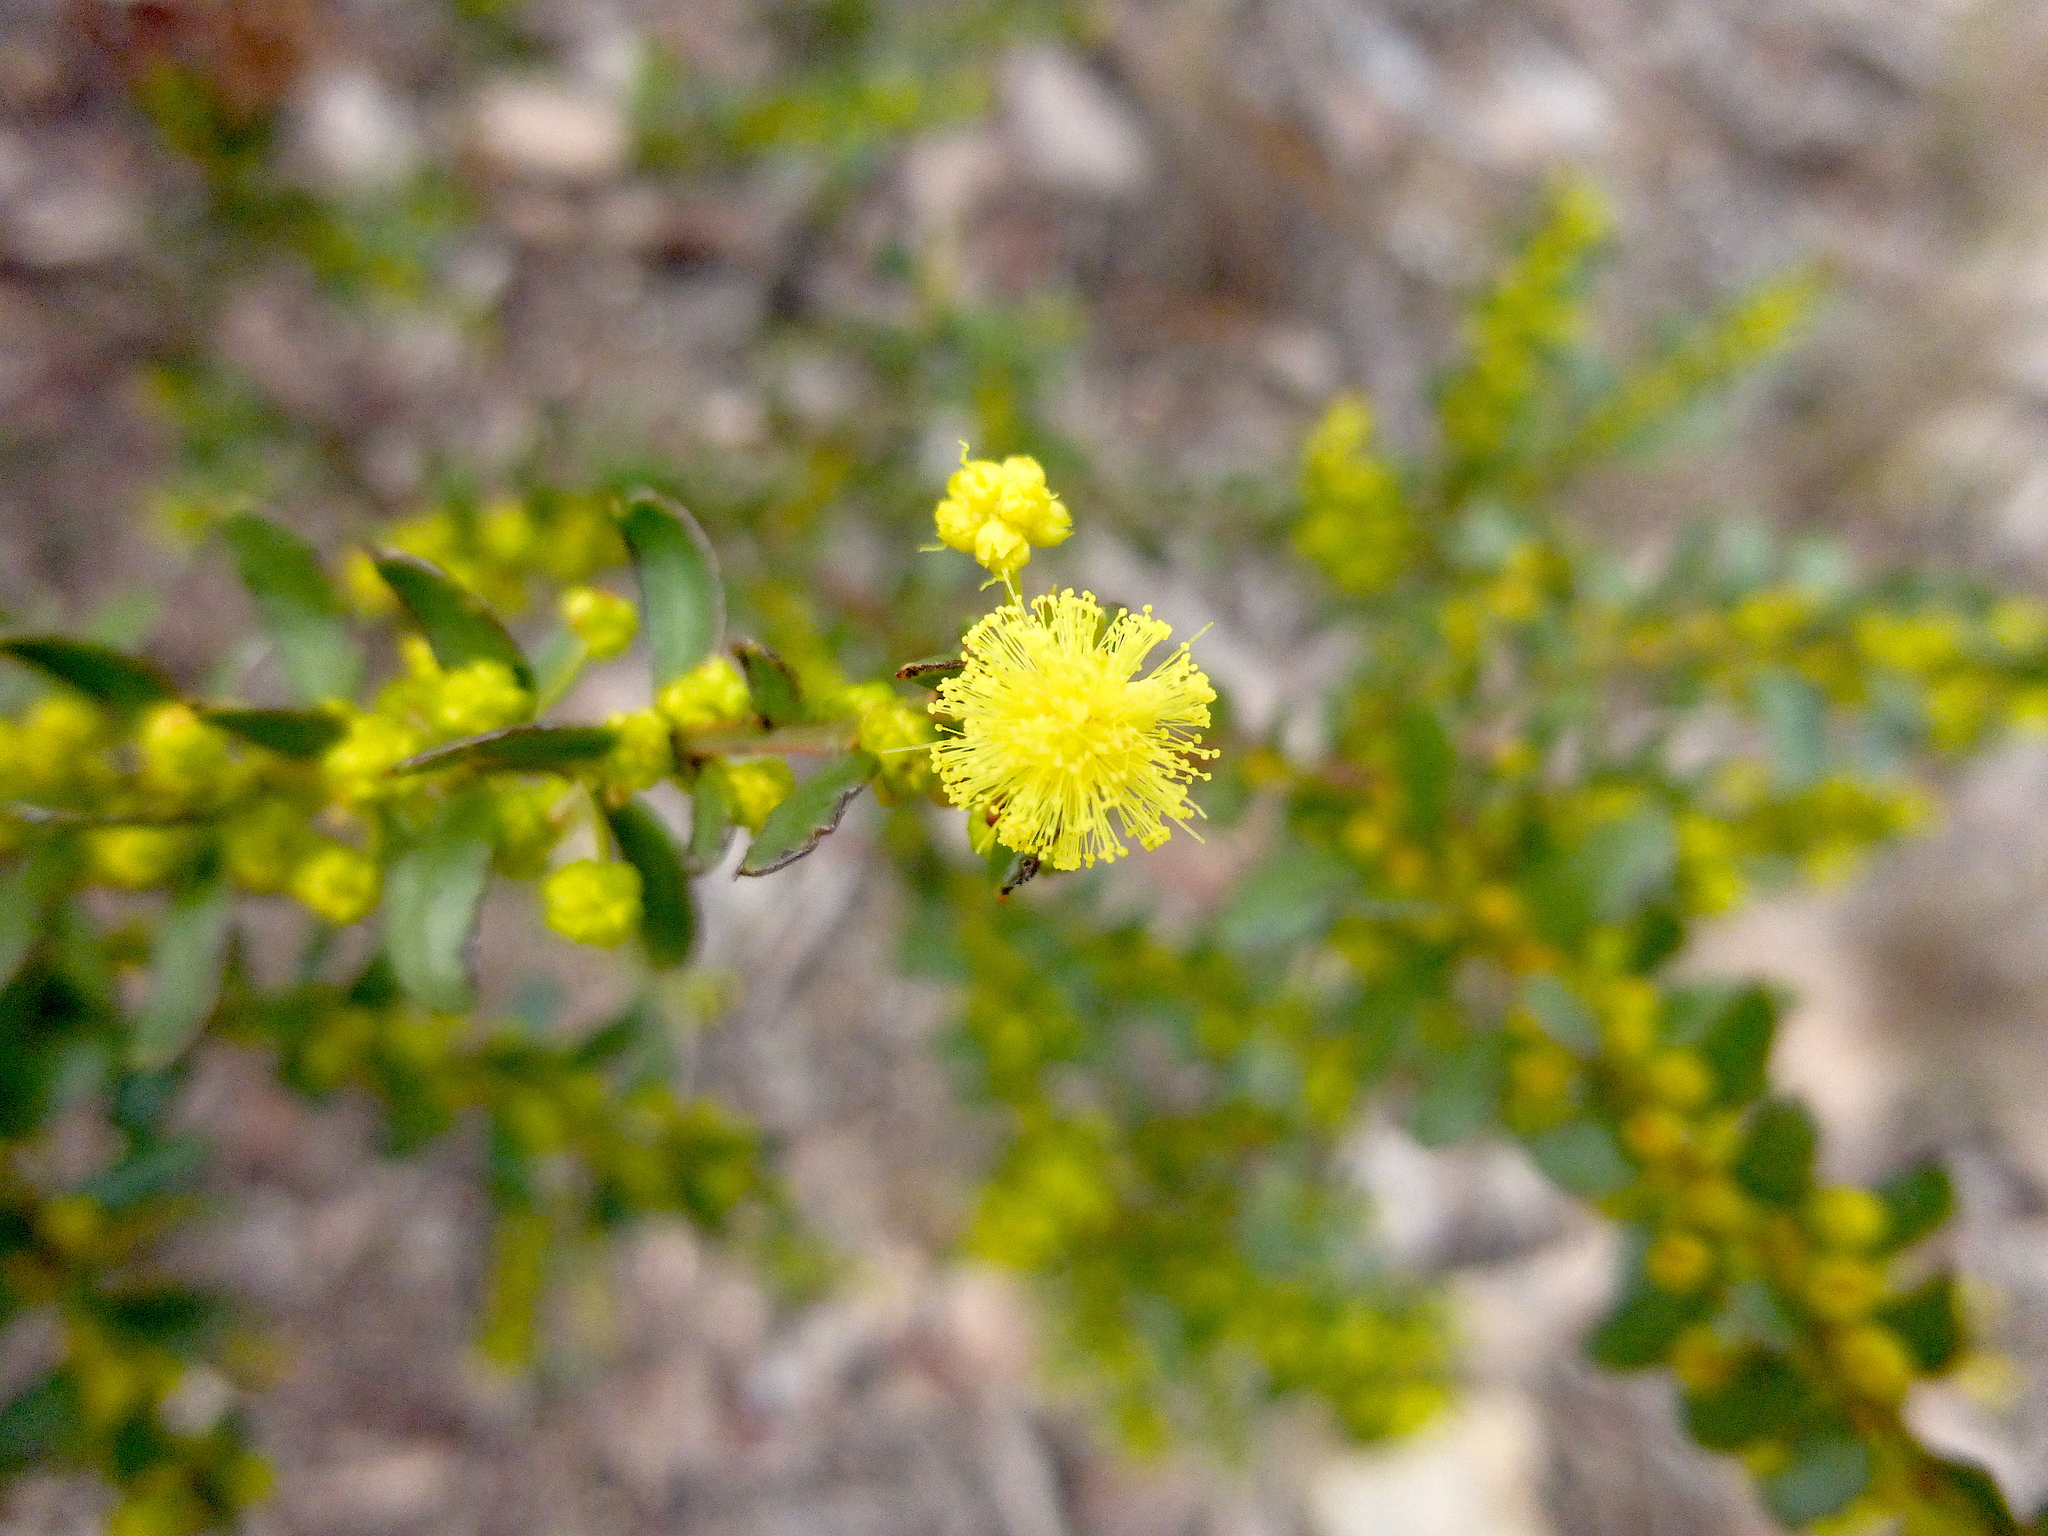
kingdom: Plantae
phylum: Tracheophyta
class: Magnoliopsida
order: Fabales
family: Fabaceae
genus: Acacia
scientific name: Acacia acinacea
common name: Gold-dust acacia
